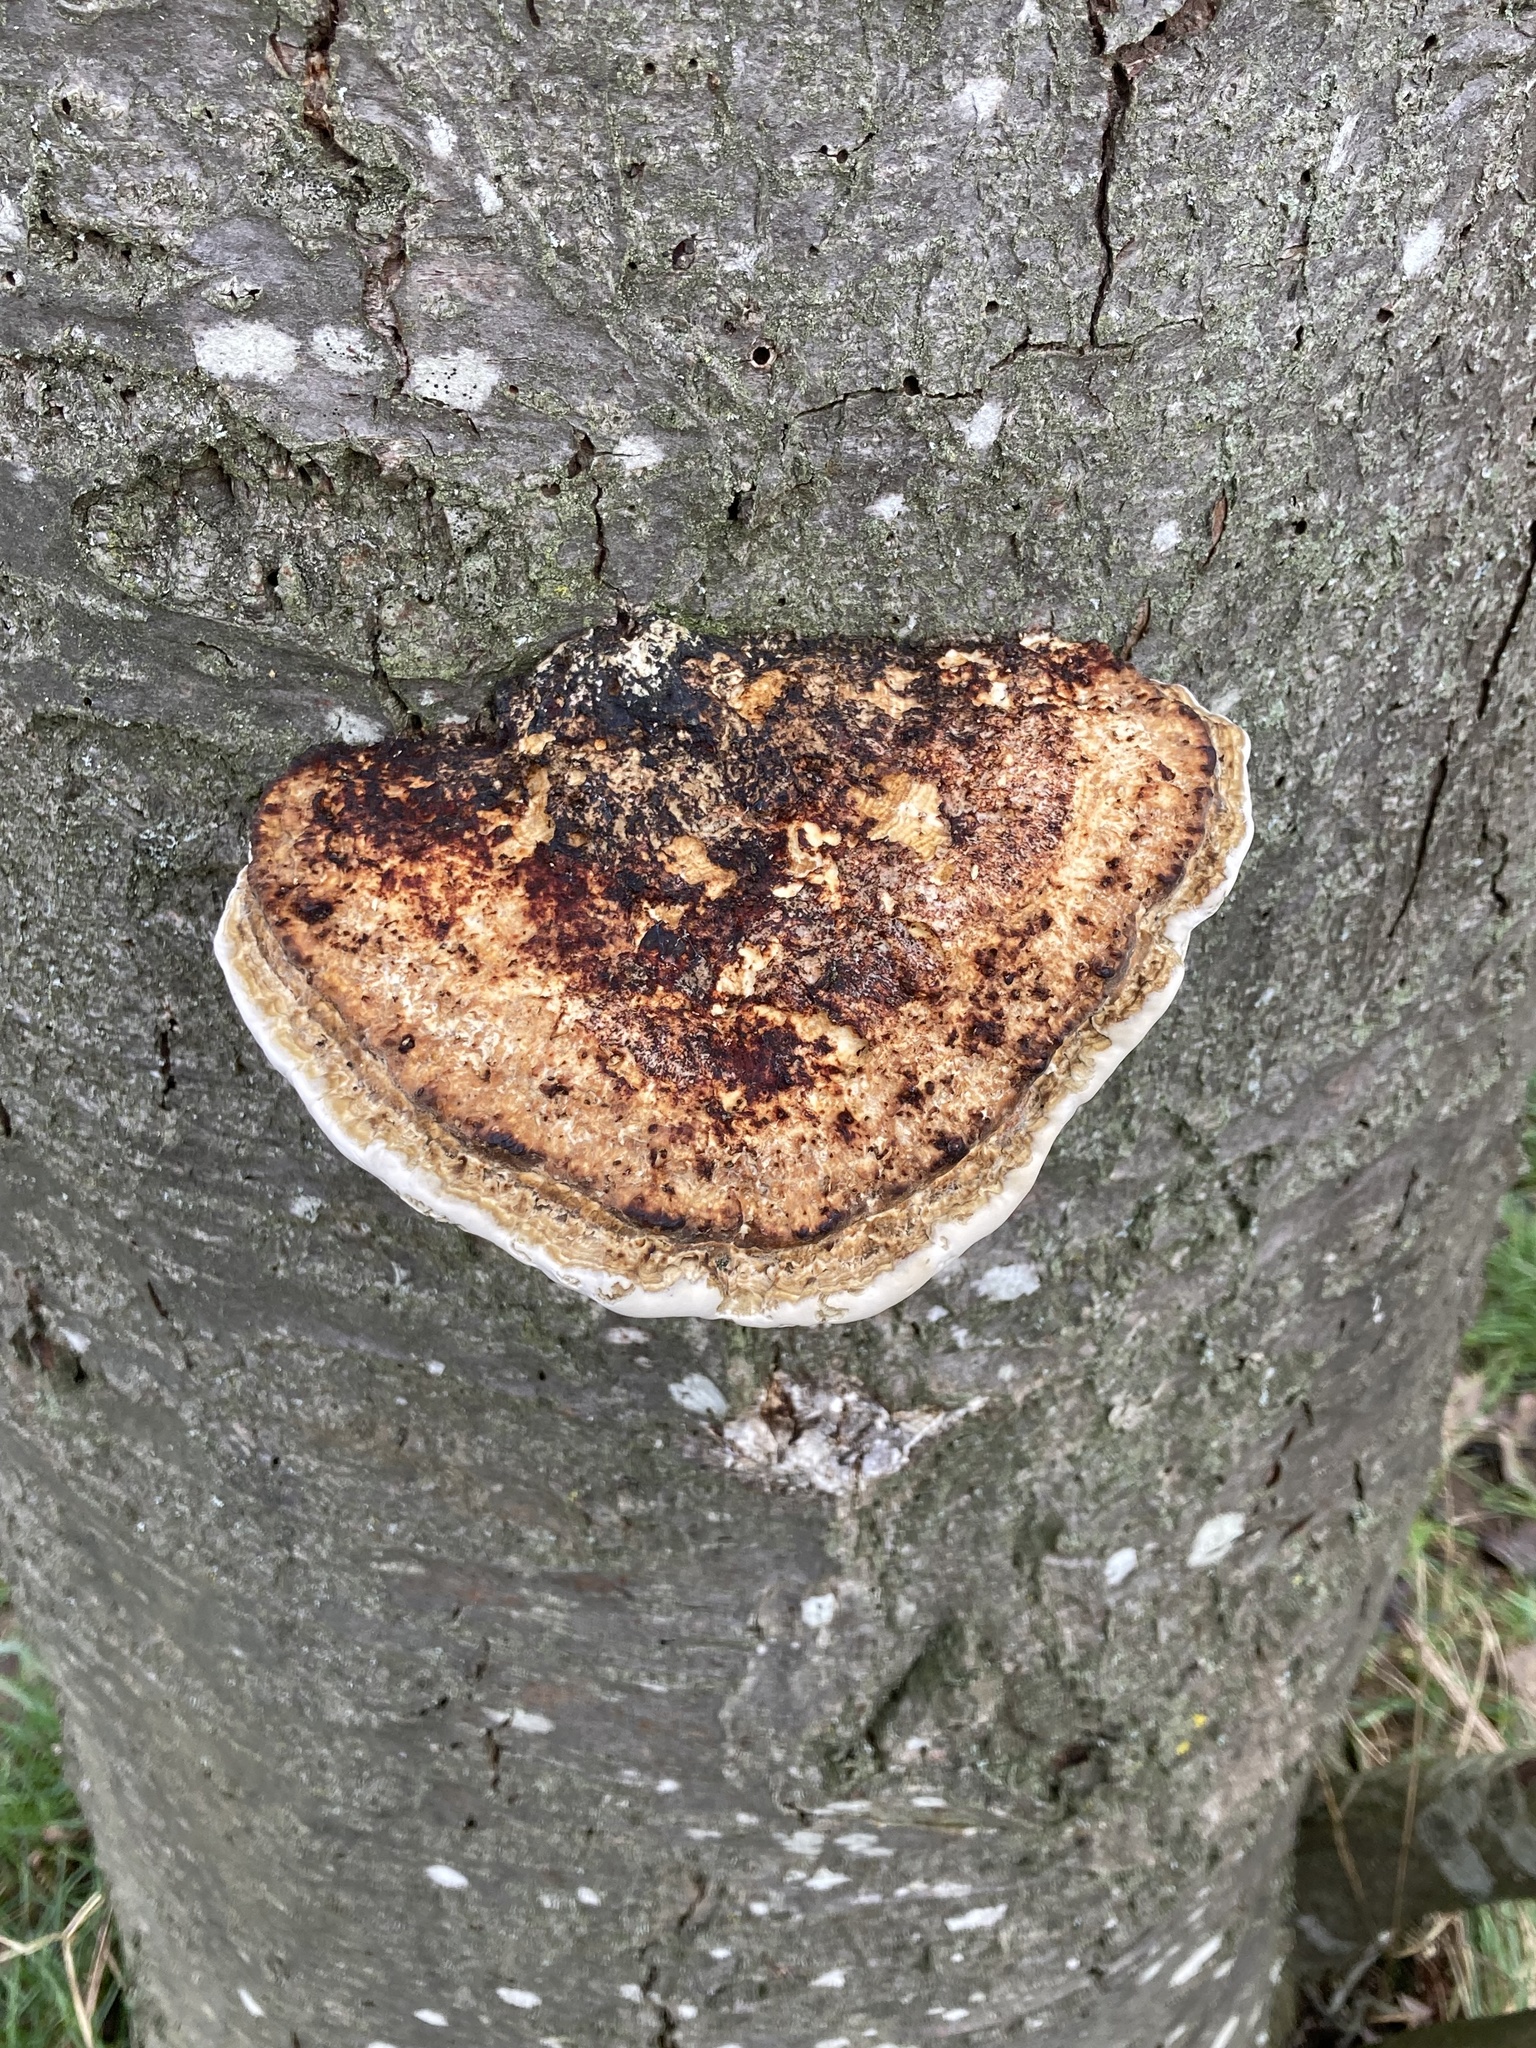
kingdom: Fungi
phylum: Basidiomycota
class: Agaricomycetes
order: Polyporales
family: Polyporaceae
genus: Daedaleopsis
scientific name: Daedaleopsis confragosa
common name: Blushing bracket
